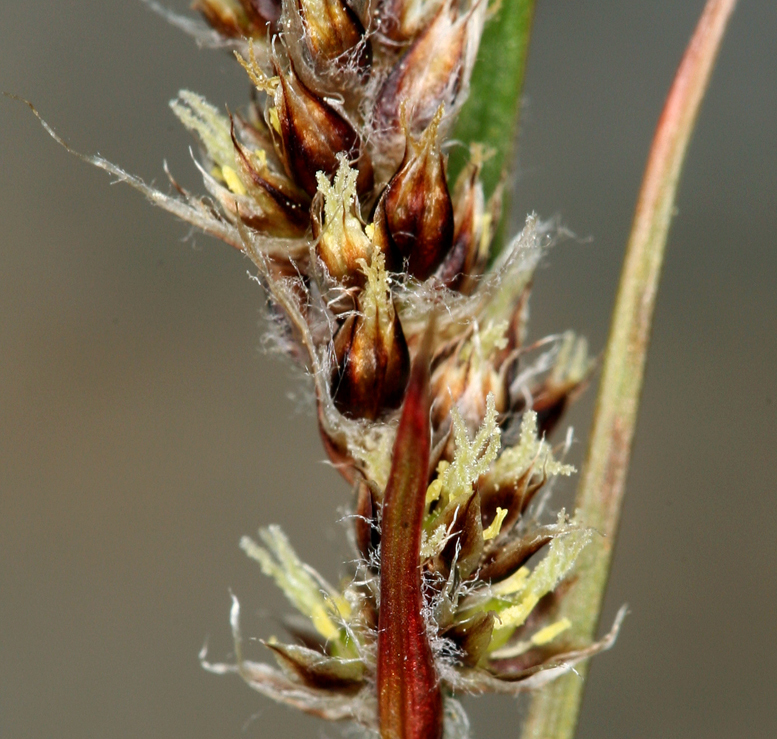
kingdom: Plantae
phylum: Tracheophyta
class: Liliopsida
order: Poales
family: Juncaceae
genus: Luzula
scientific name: Luzula spicata
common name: Spiked wood-rush
